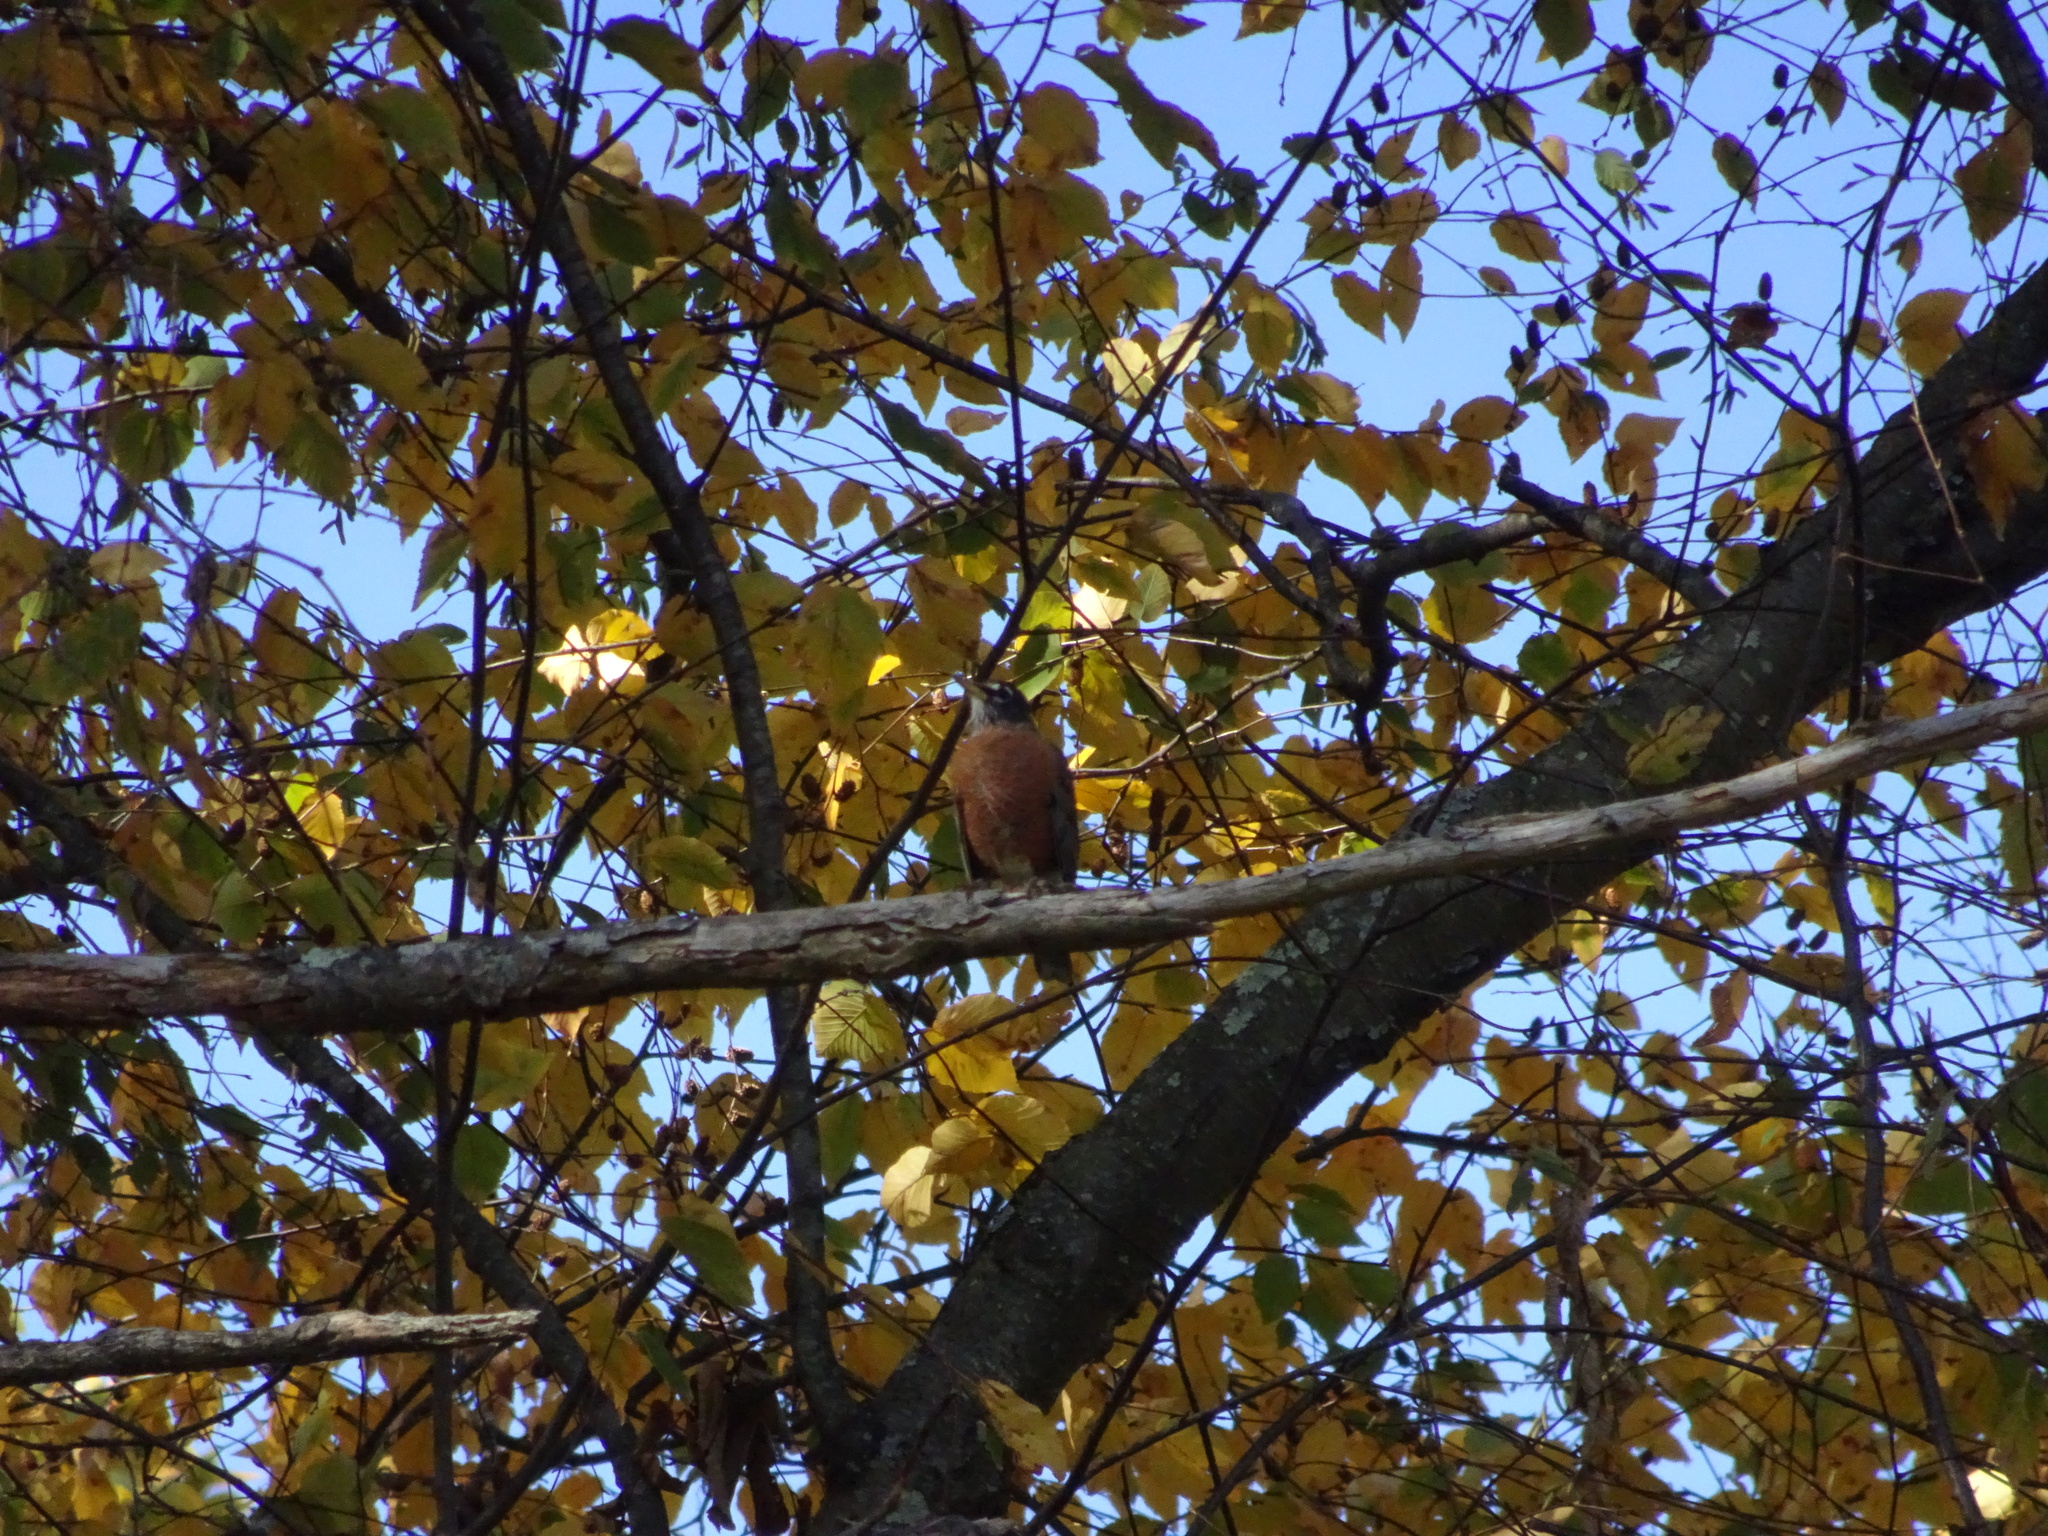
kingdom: Animalia
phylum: Chordata
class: Aves
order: Passeriformes
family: Turdidae
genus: Turdus
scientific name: Turdus migratorius
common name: American robin
